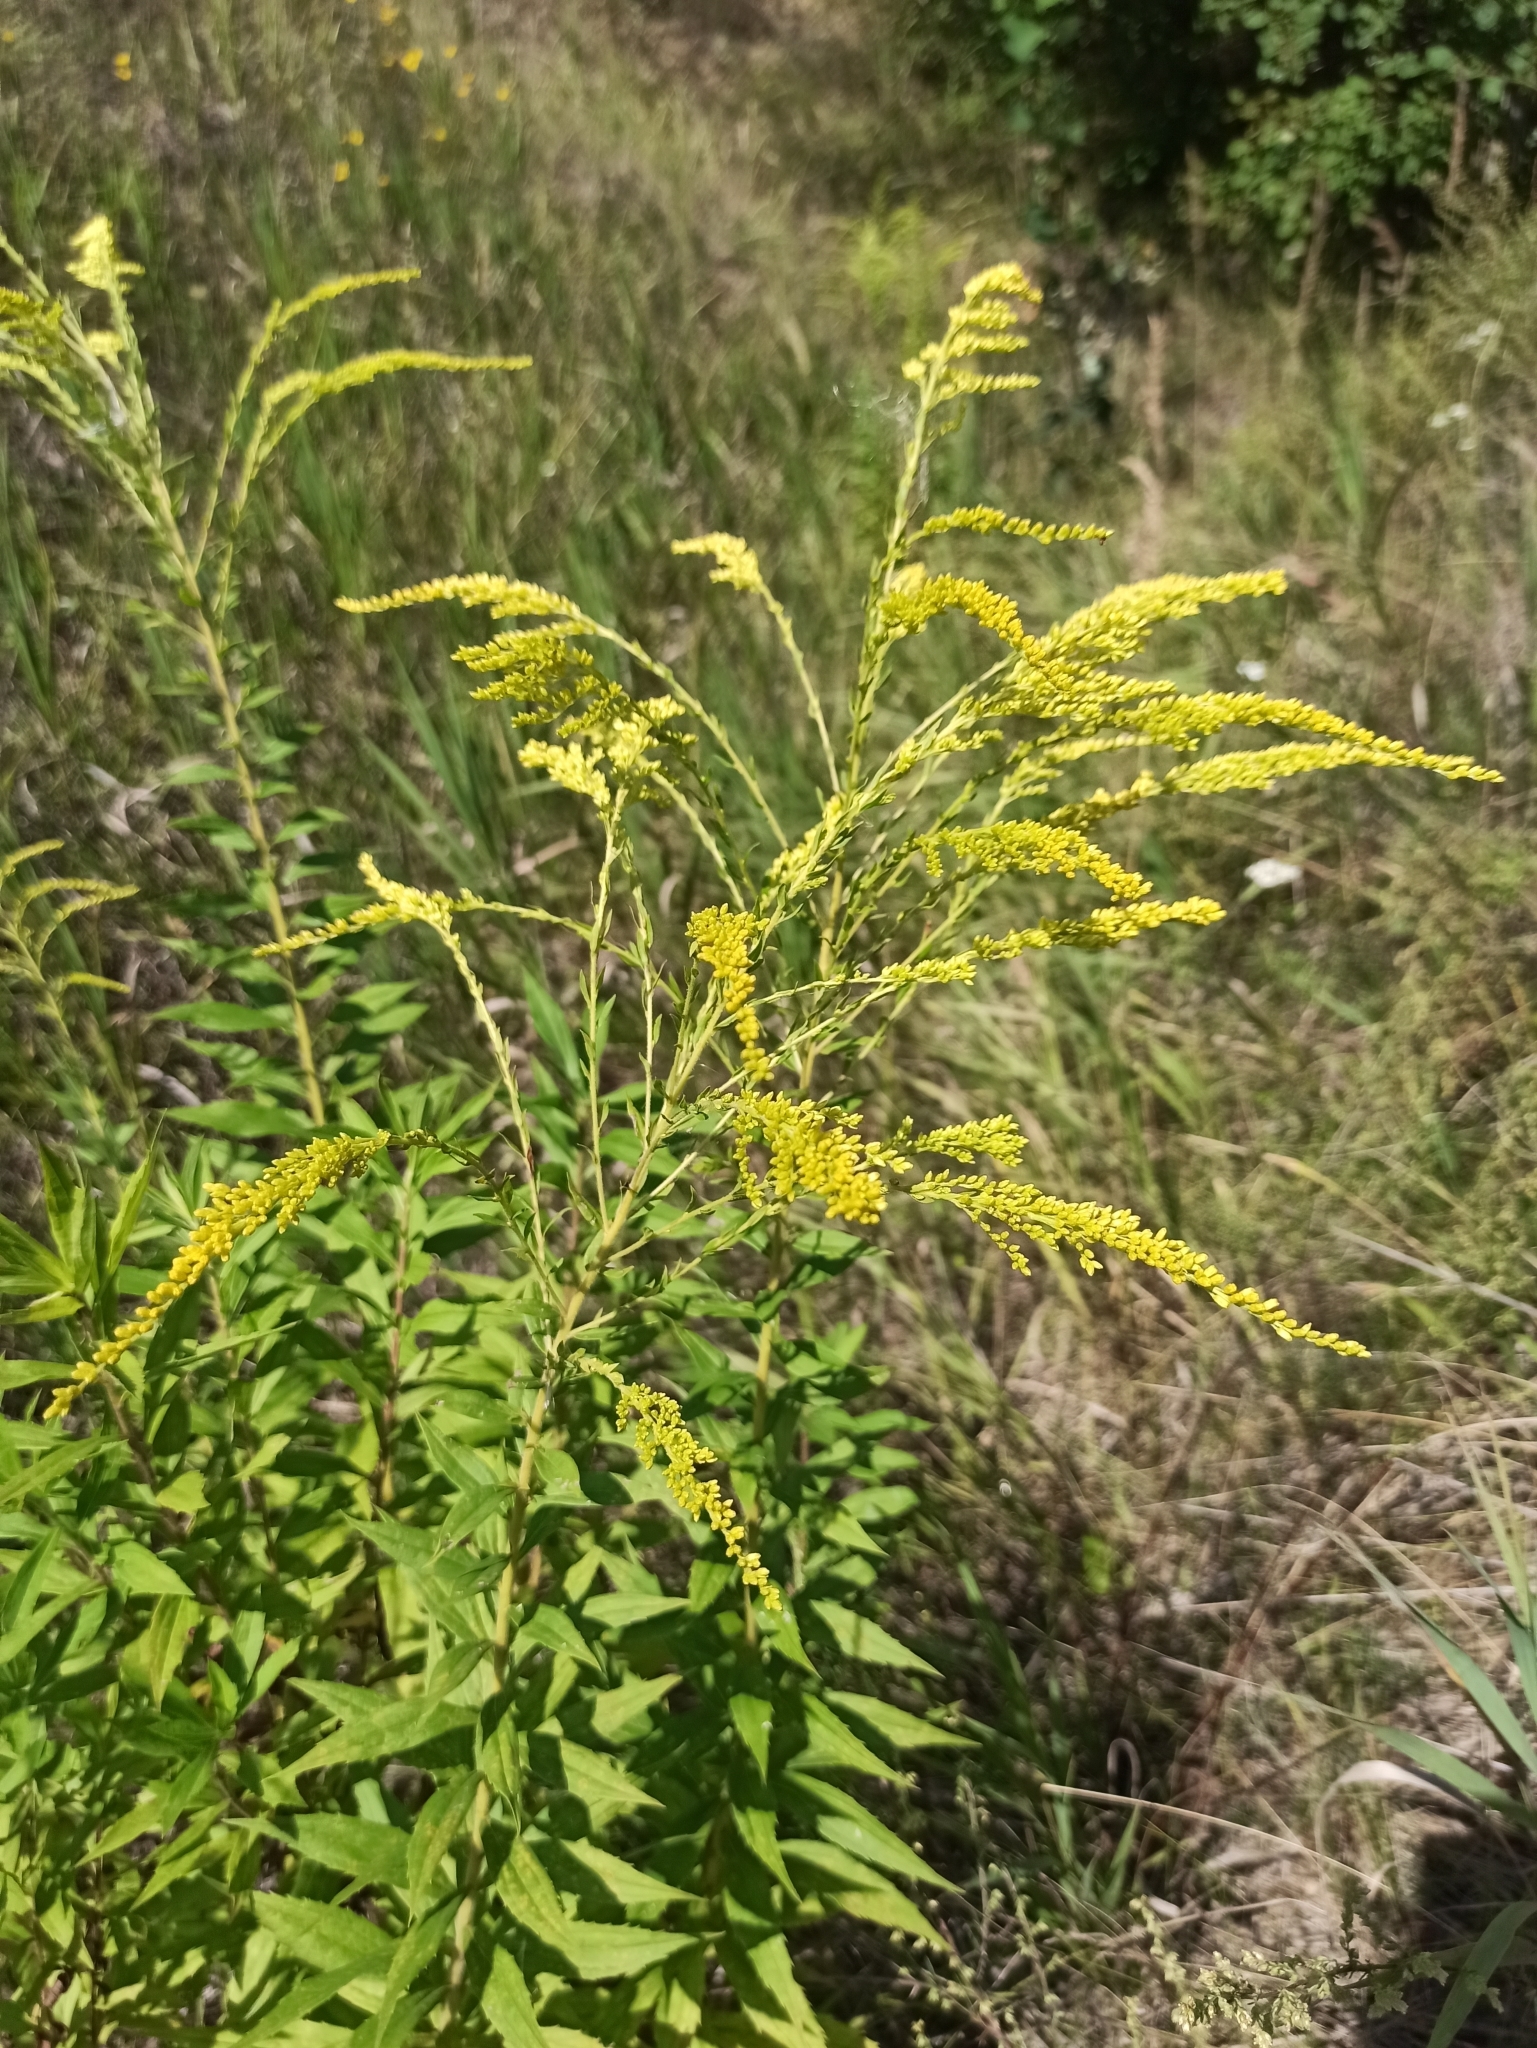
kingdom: Plantae
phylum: Tracheophyta
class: Magnoliopsida
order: Asterales
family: Asteraceae
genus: Solidago
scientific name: Solidago canadensis
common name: Canada goldenrod
